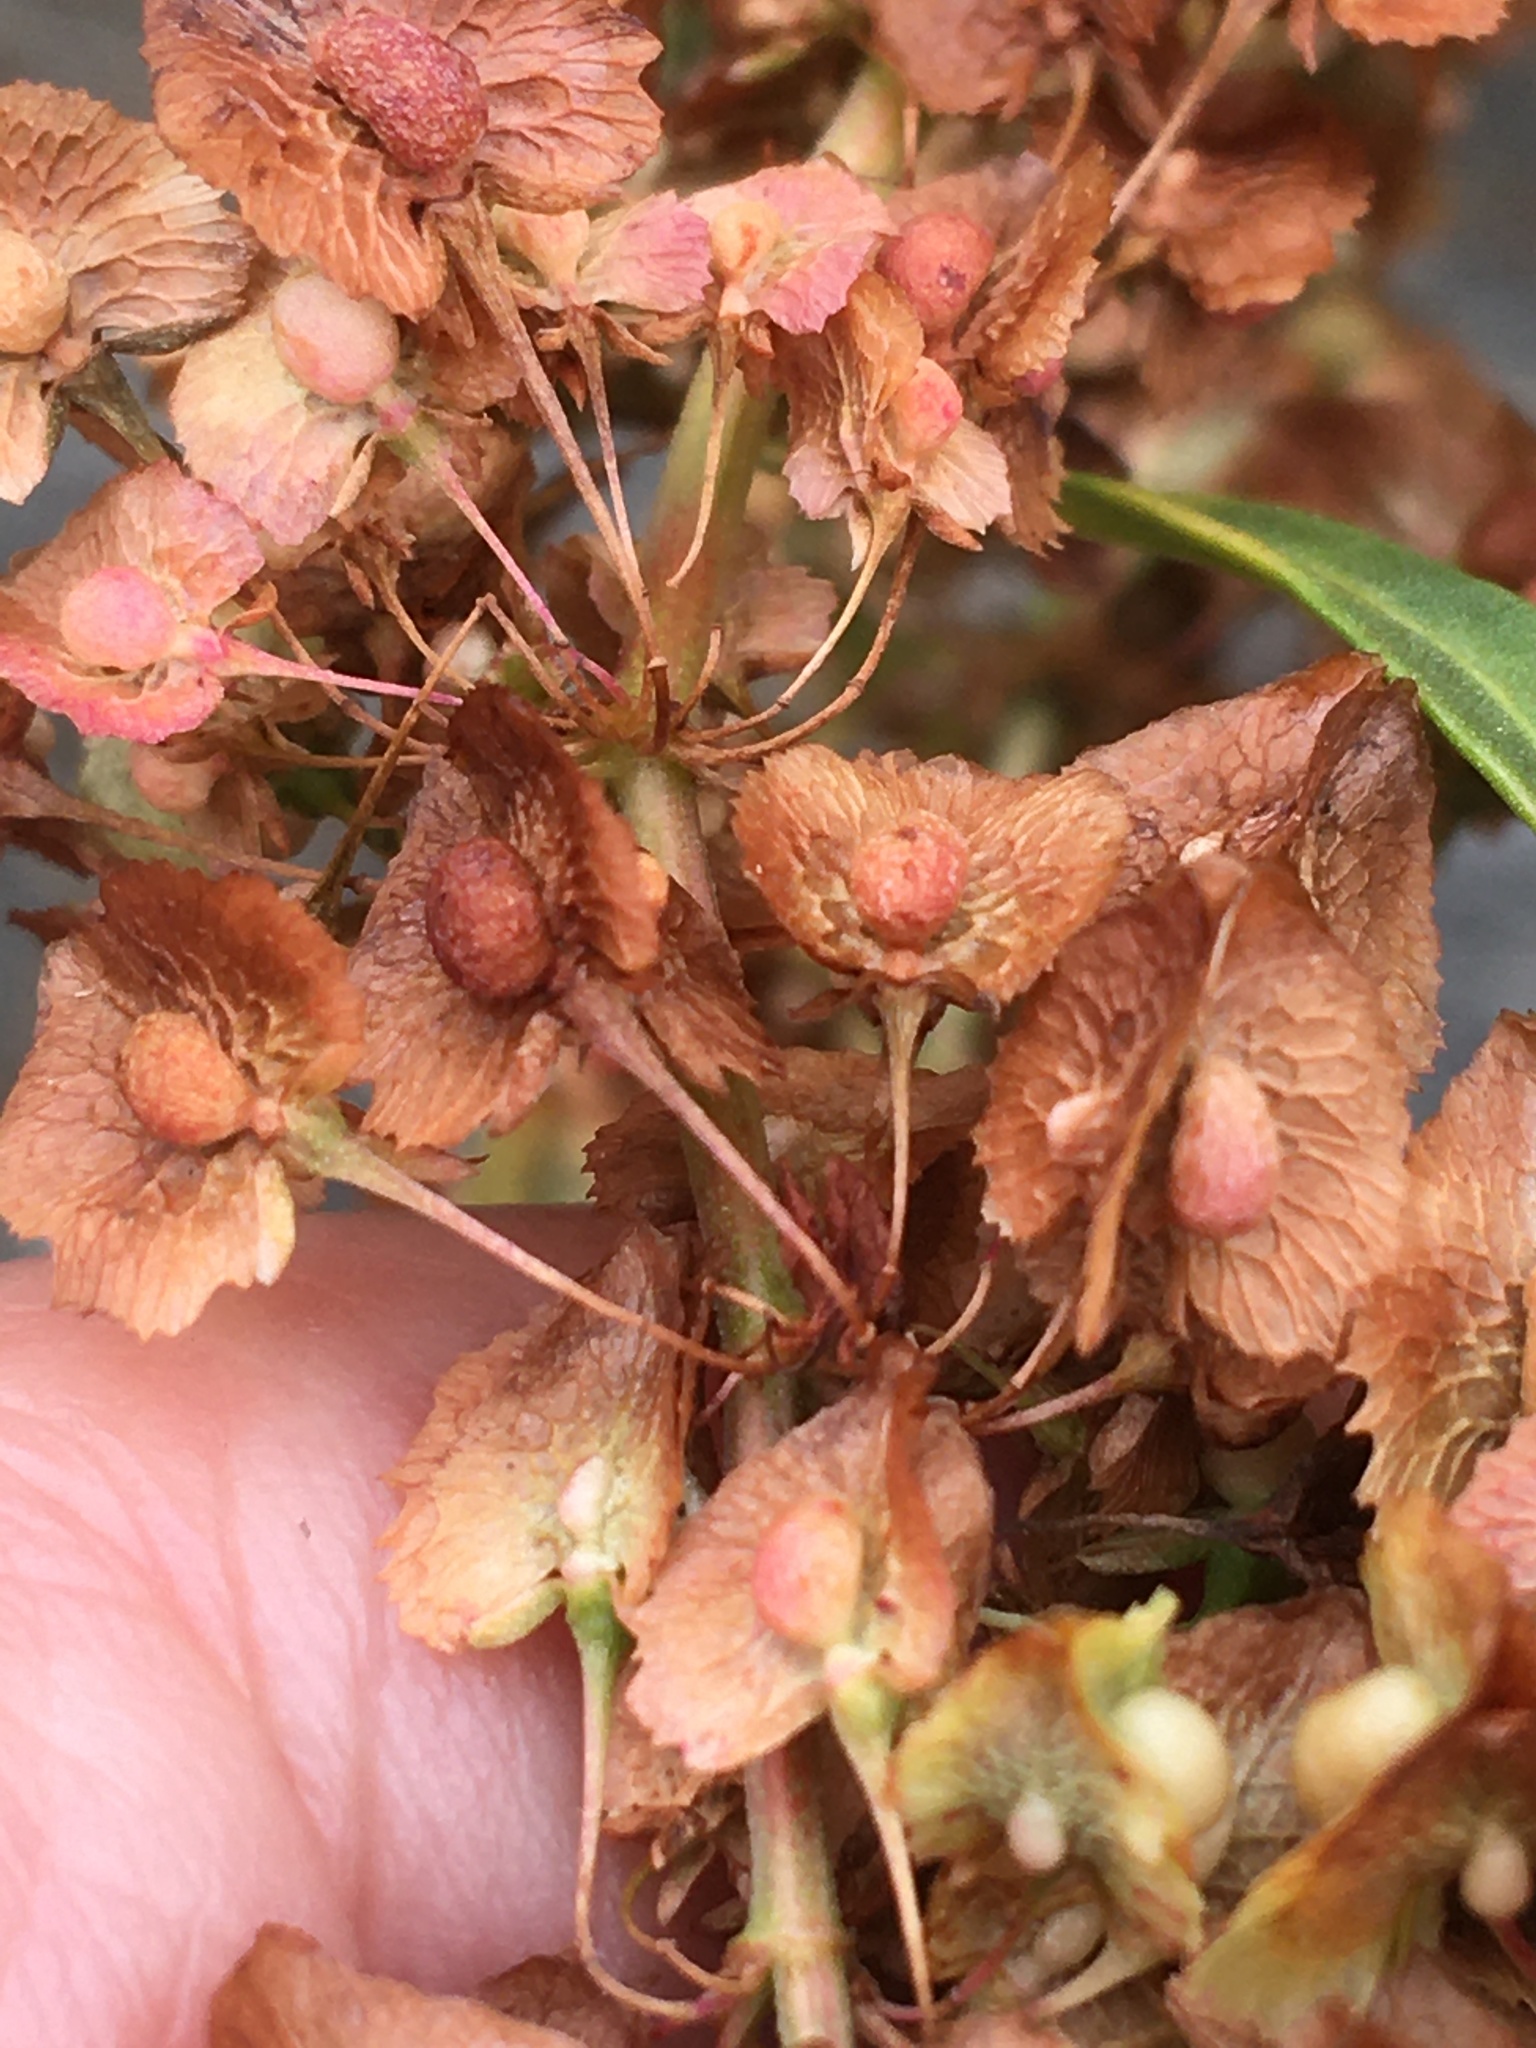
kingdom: Plantae
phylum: Tracheophyta
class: Magnoliopsida
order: Caryophyllales
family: Polygonaceae
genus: Rumex
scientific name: Rumex cristatus
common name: Greek dock
